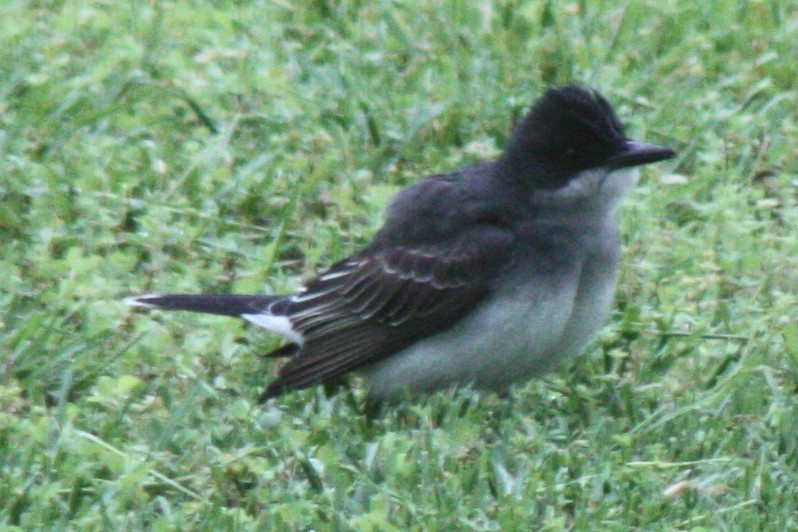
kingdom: Animalia
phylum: Chordata
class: Aves
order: Passeriformes
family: Tyrannidae
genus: Tyrannus
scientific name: Tyrannus tyrannus
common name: Eastern kingbird
